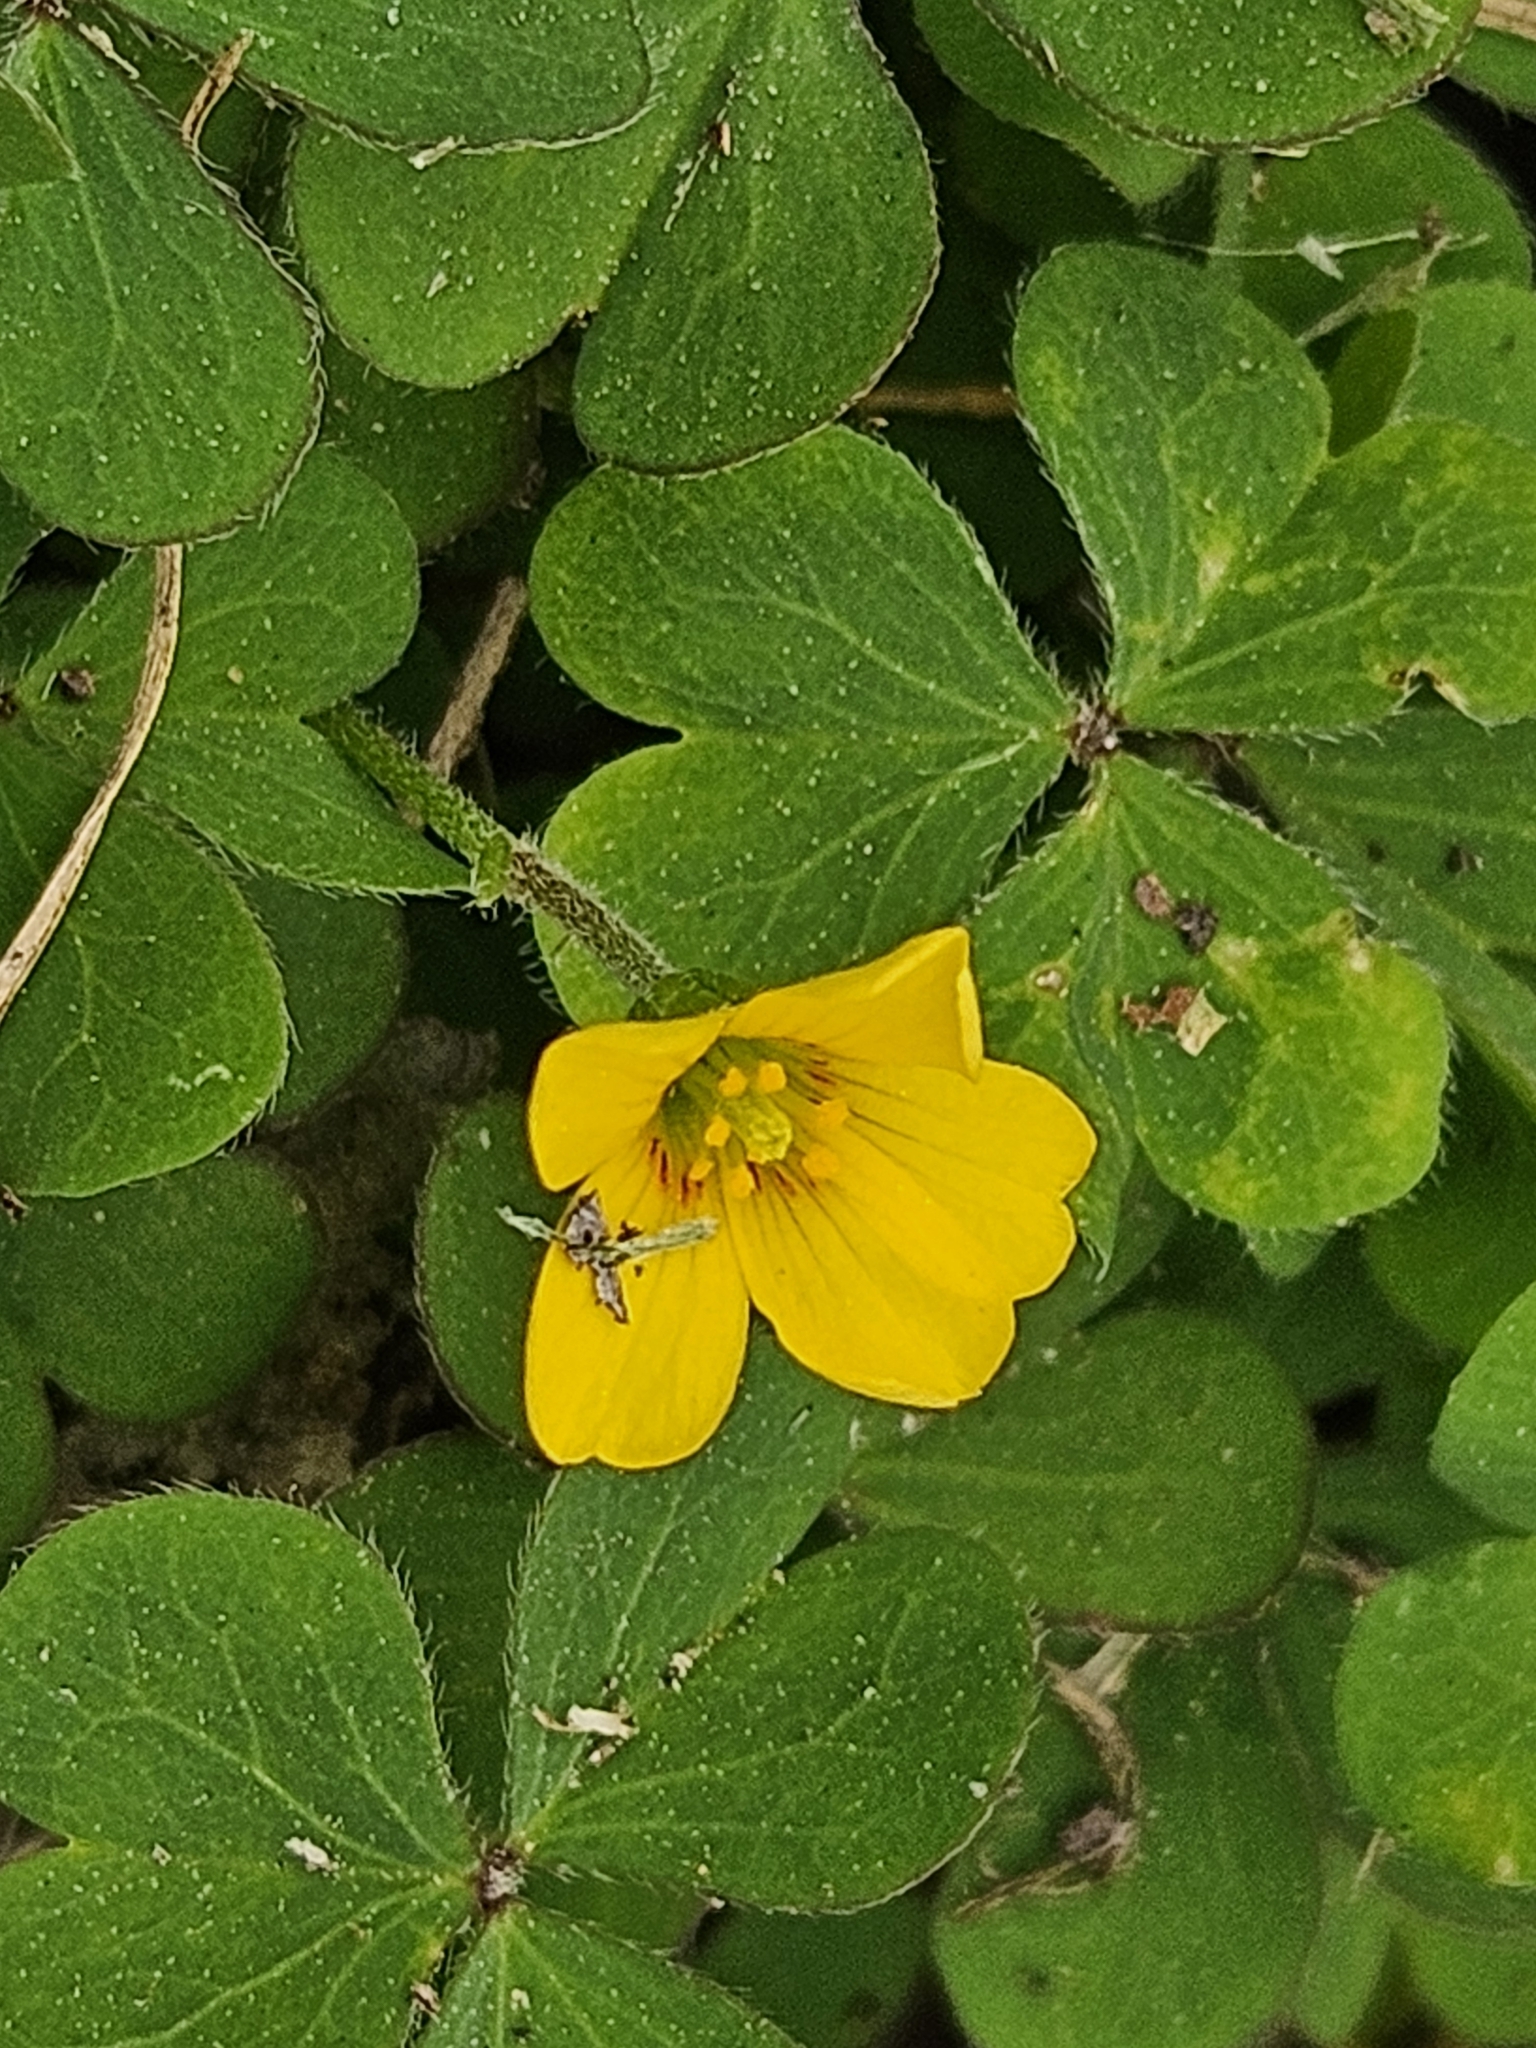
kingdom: Plantae
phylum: Tracheophyta
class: Magnoliopsida
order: Oxalidales
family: Oxalidaceae
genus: Oxalis
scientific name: Oxalis corniculata
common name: Procumbent yellow-sorrel
